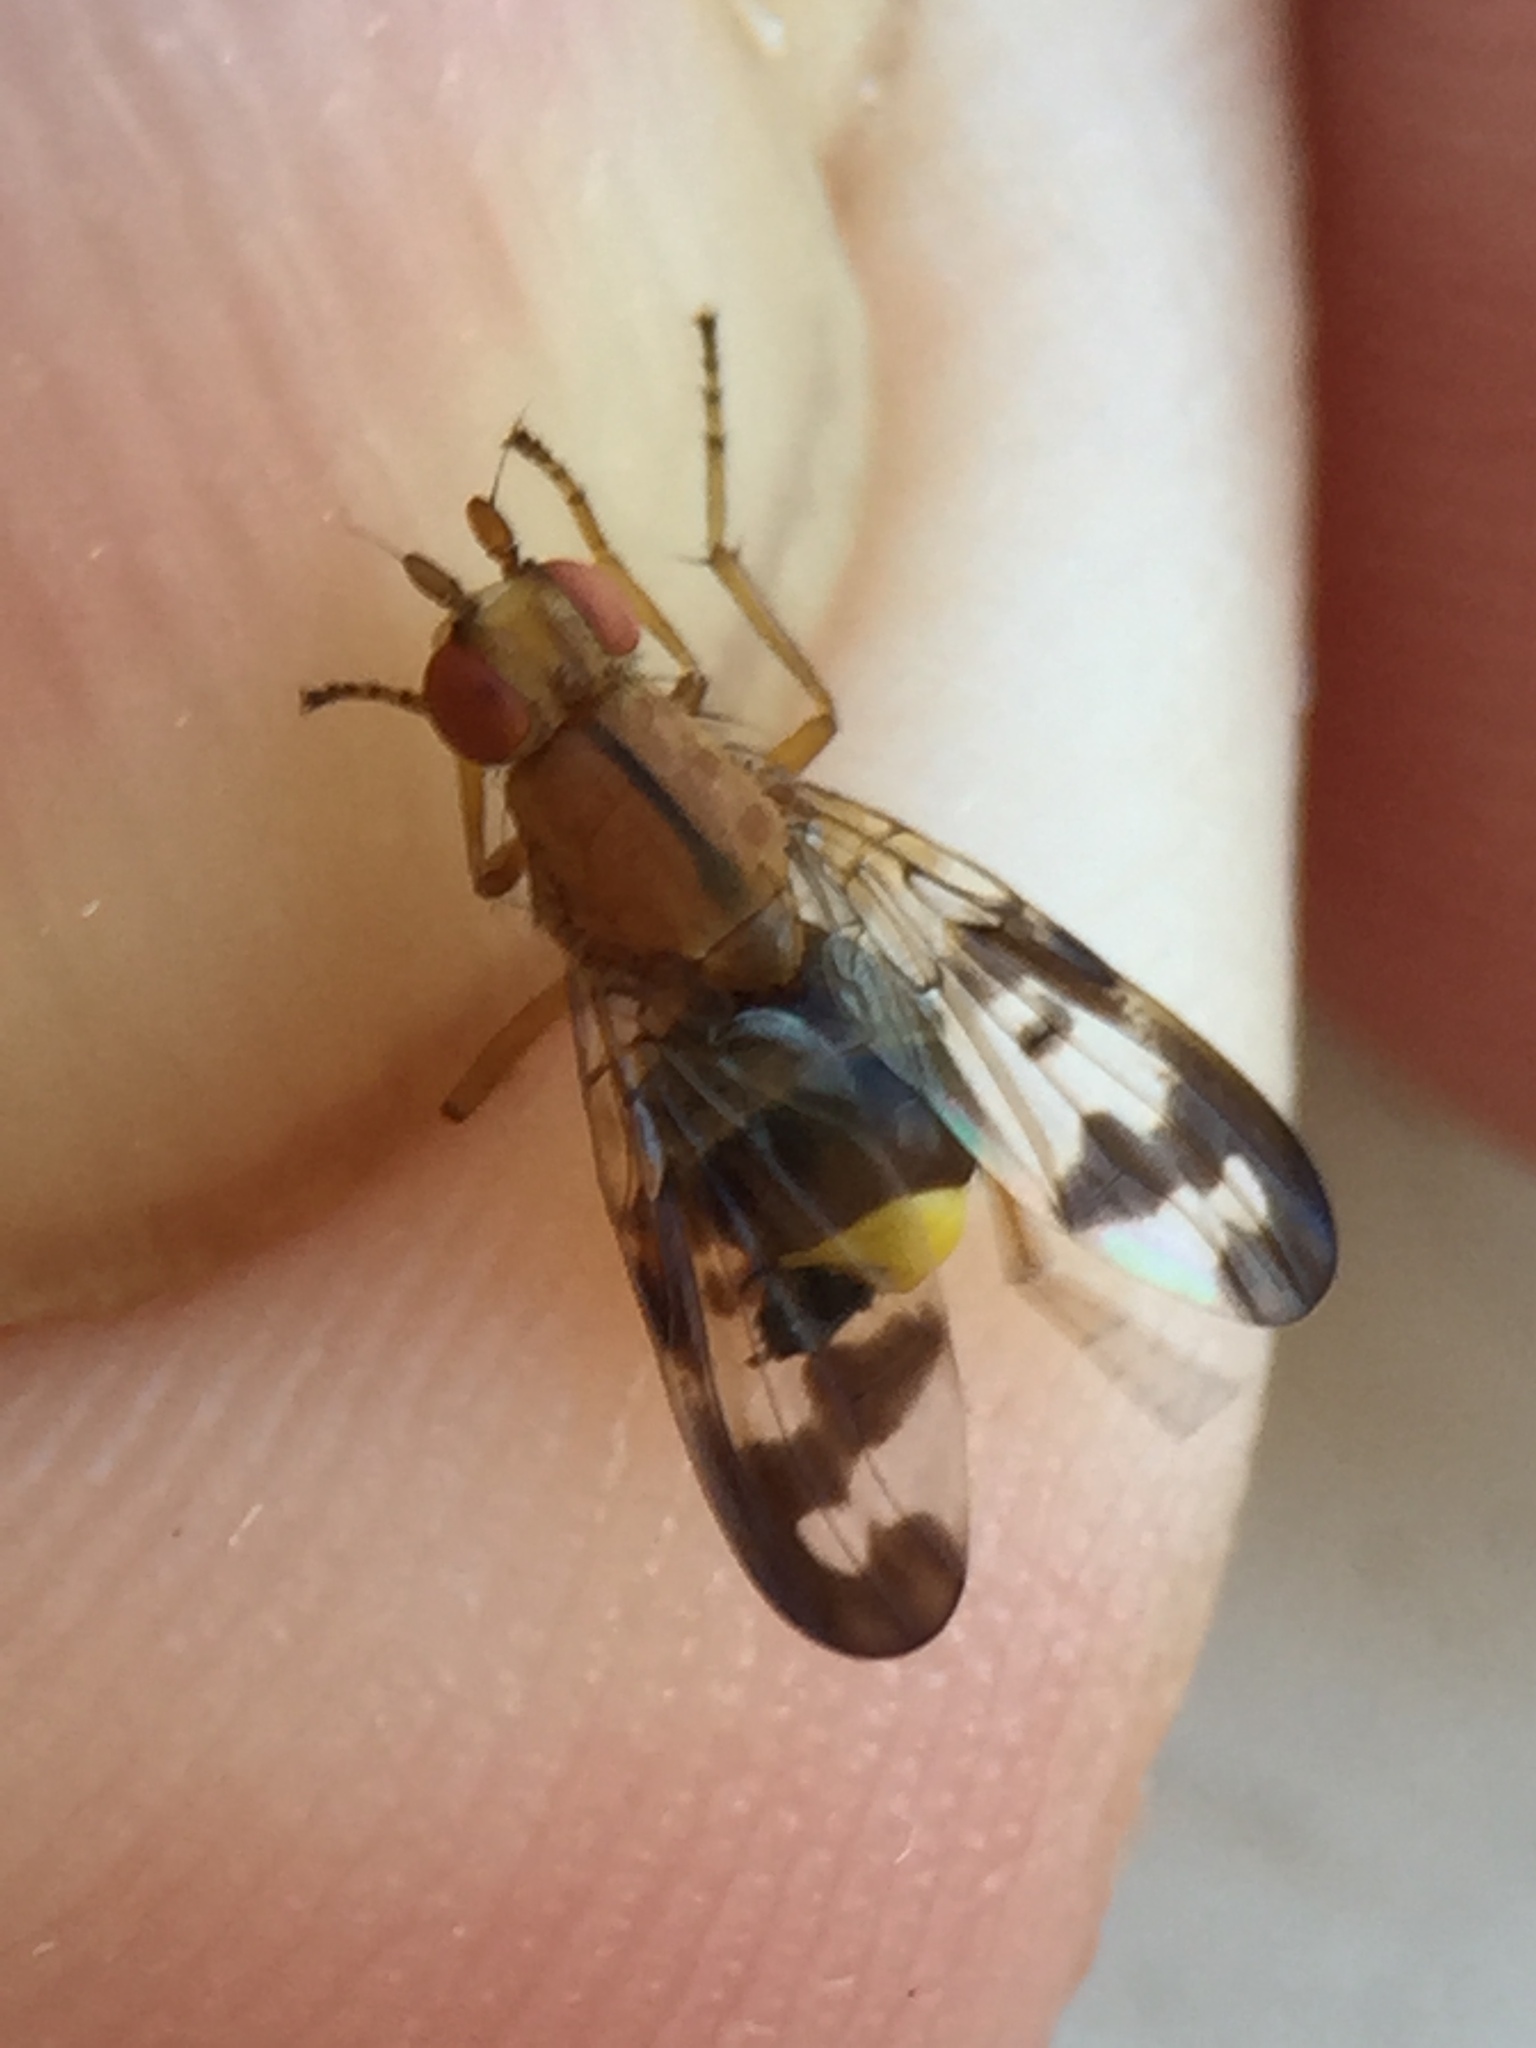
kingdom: Animalia
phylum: Arthropoda
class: Insecta
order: Diptera
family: Sciomyzidae
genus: Prosochaeta
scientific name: Prosochaeta prima
